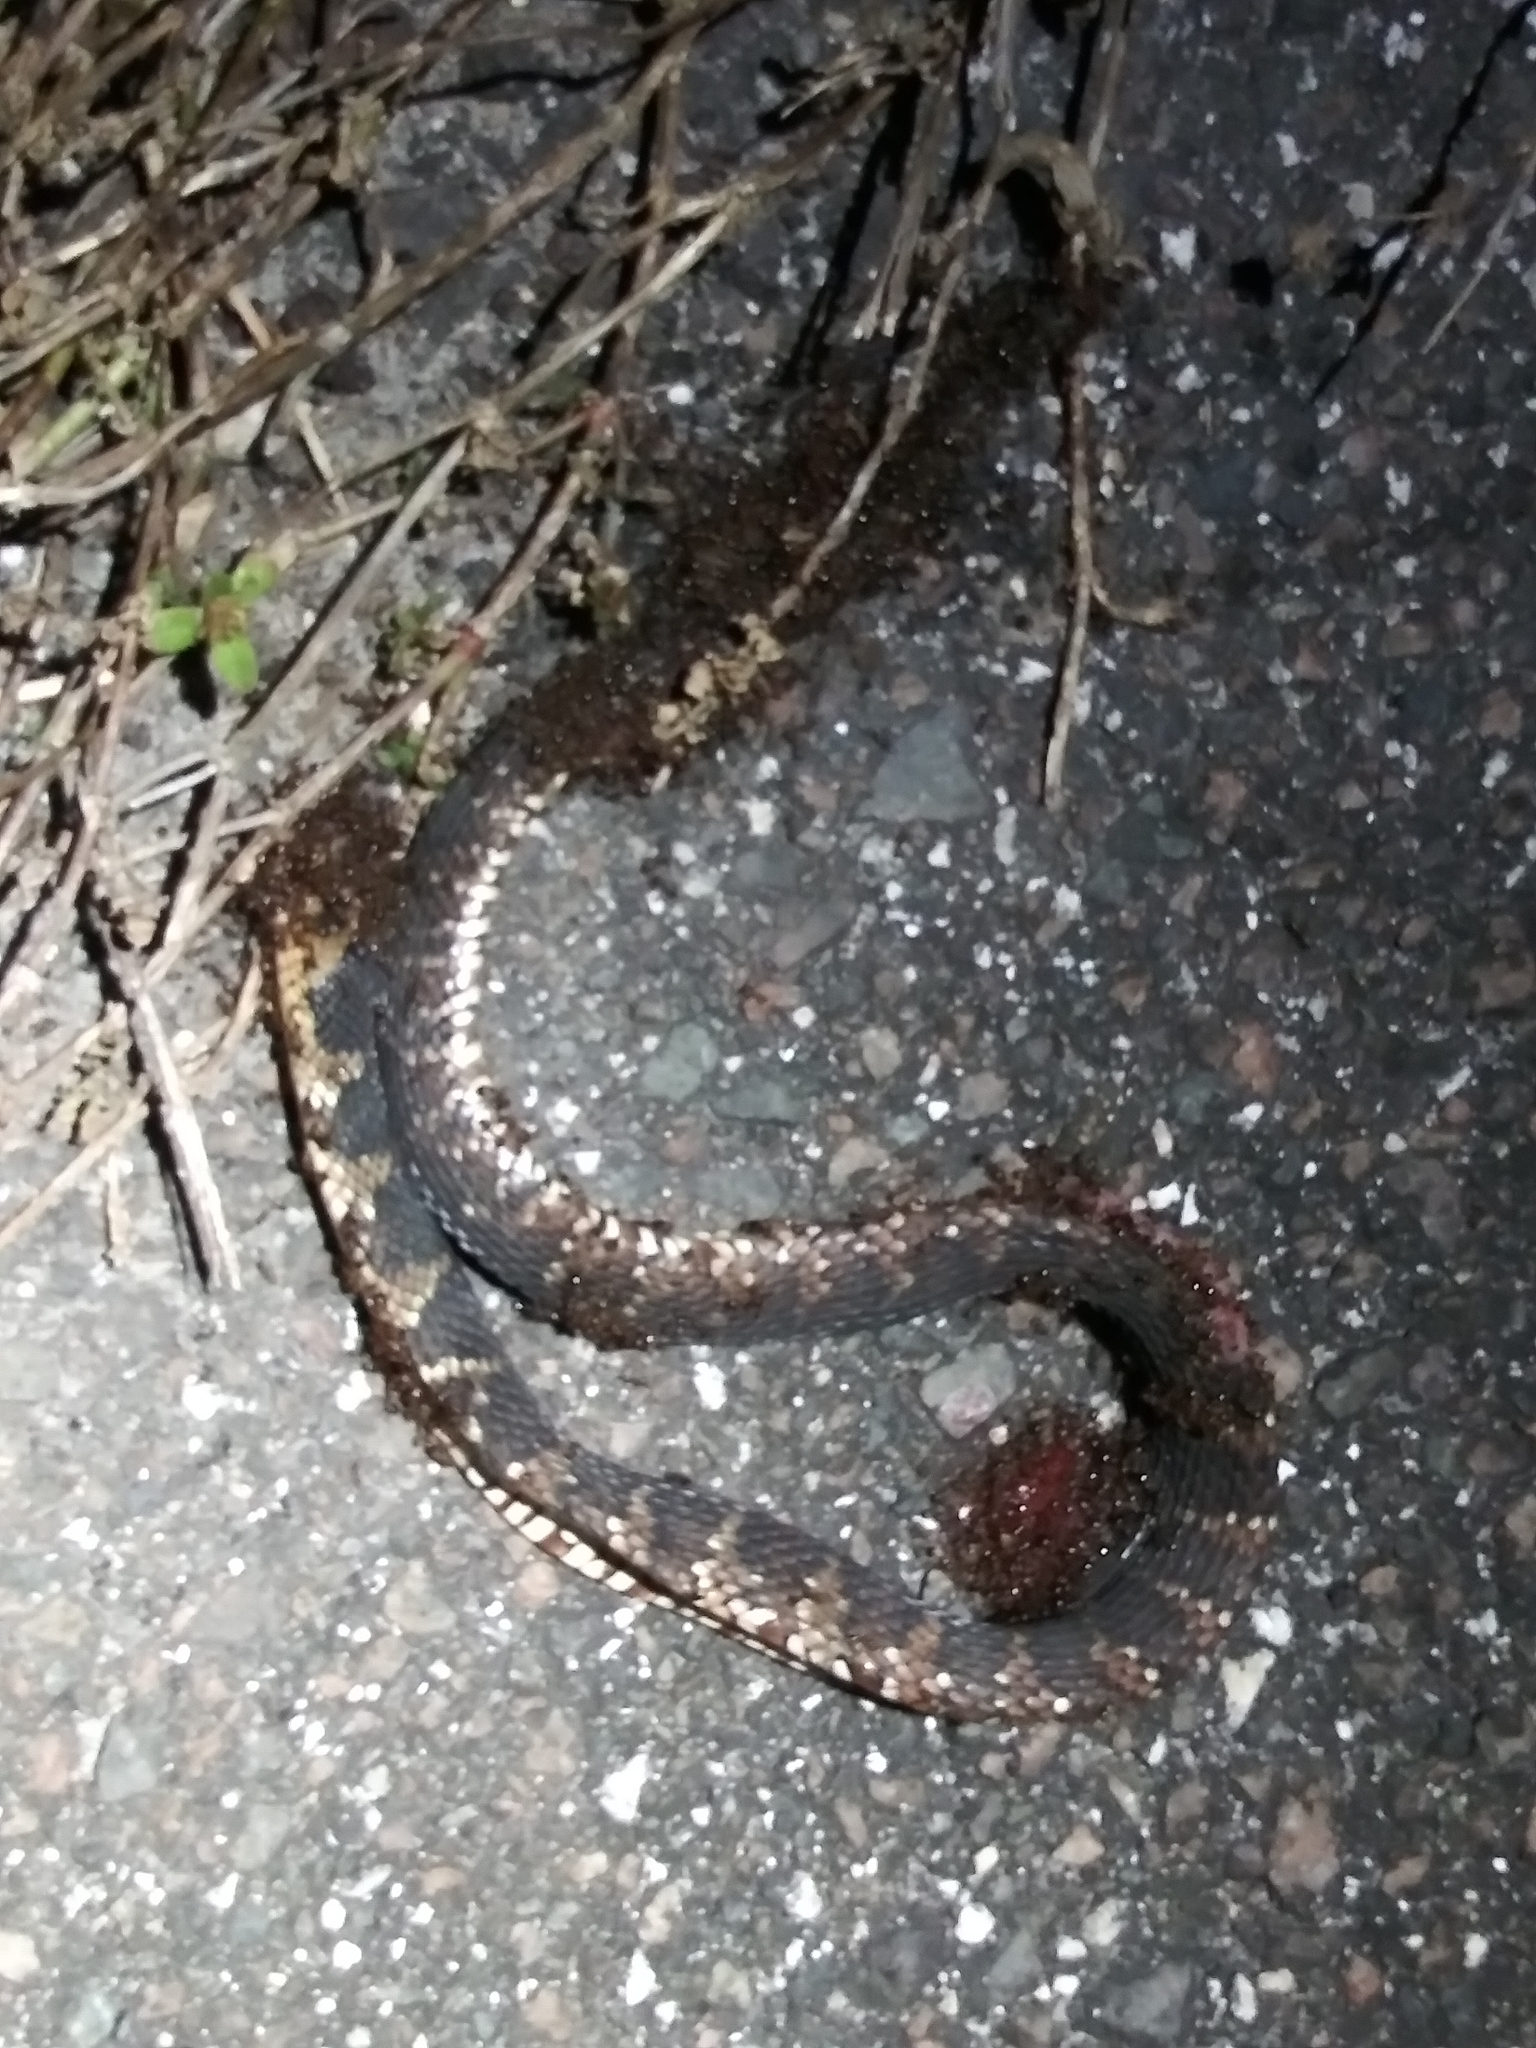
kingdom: Animalia
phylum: Chordata
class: Squamata
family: Colubridae
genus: Nerodia
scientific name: Nerodia fasciata
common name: Southern water snake
